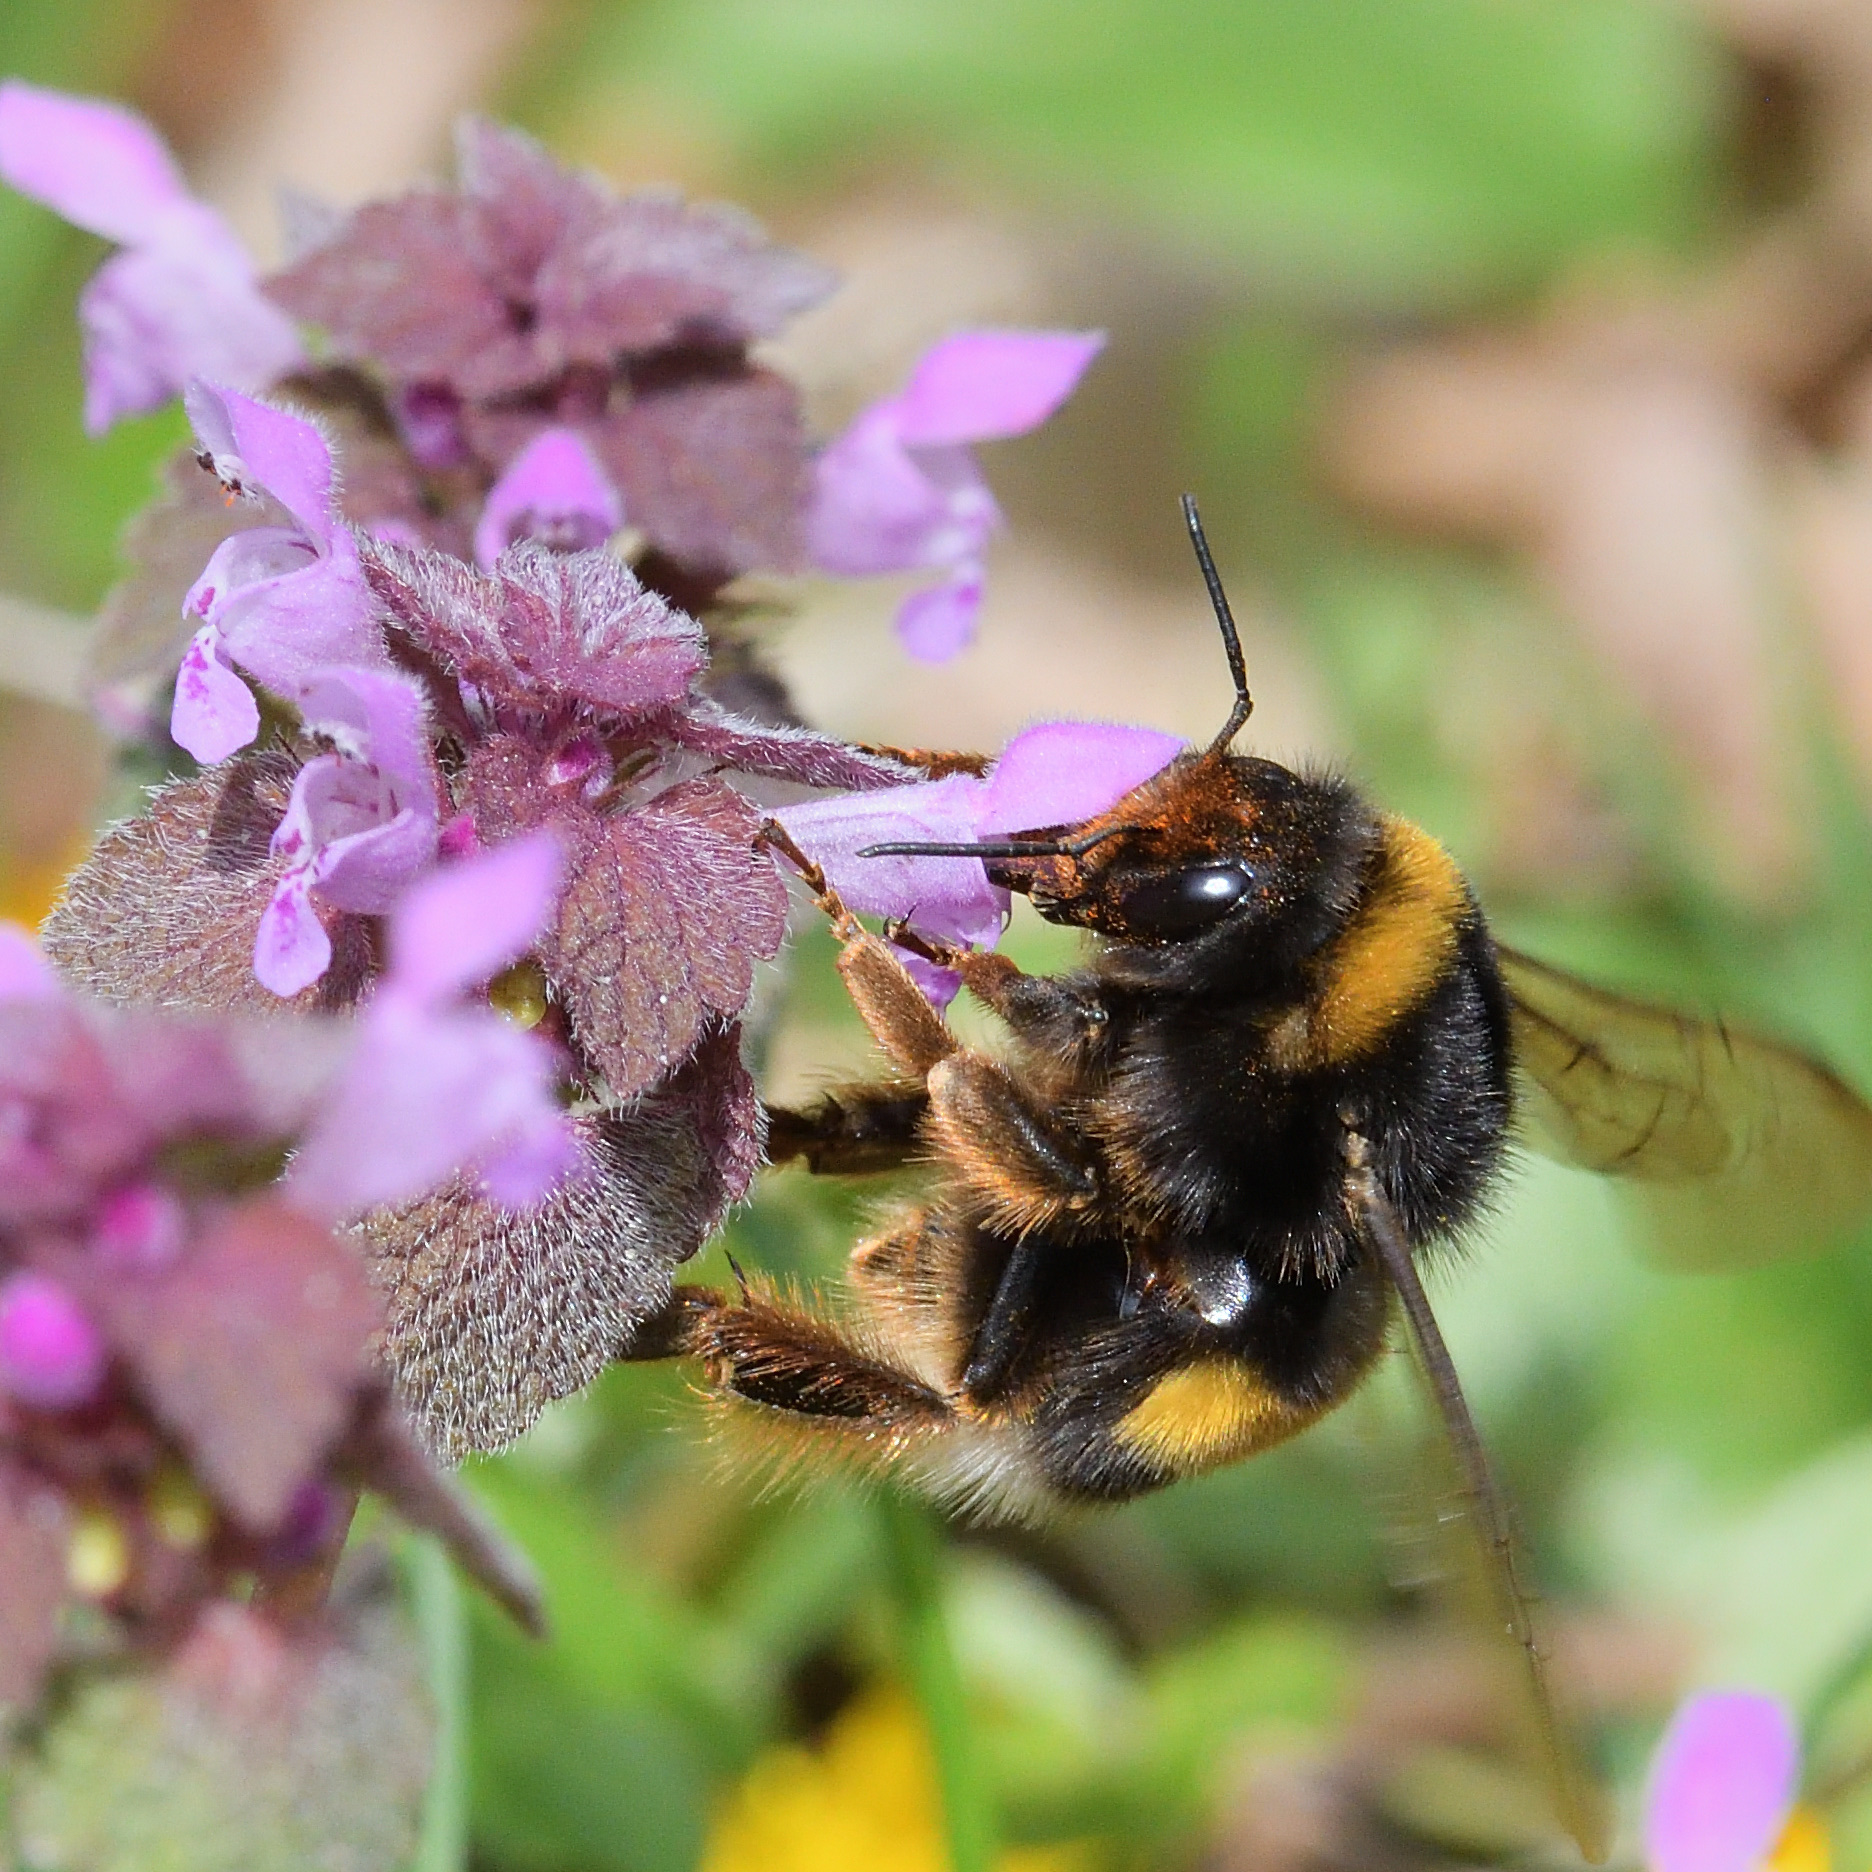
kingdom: Animalia
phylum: Arthropoda
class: Insecta
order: Hymenoptera
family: Apidae
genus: Bombus
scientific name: Bombus terrestris
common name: Buff-tailed bumblebee
